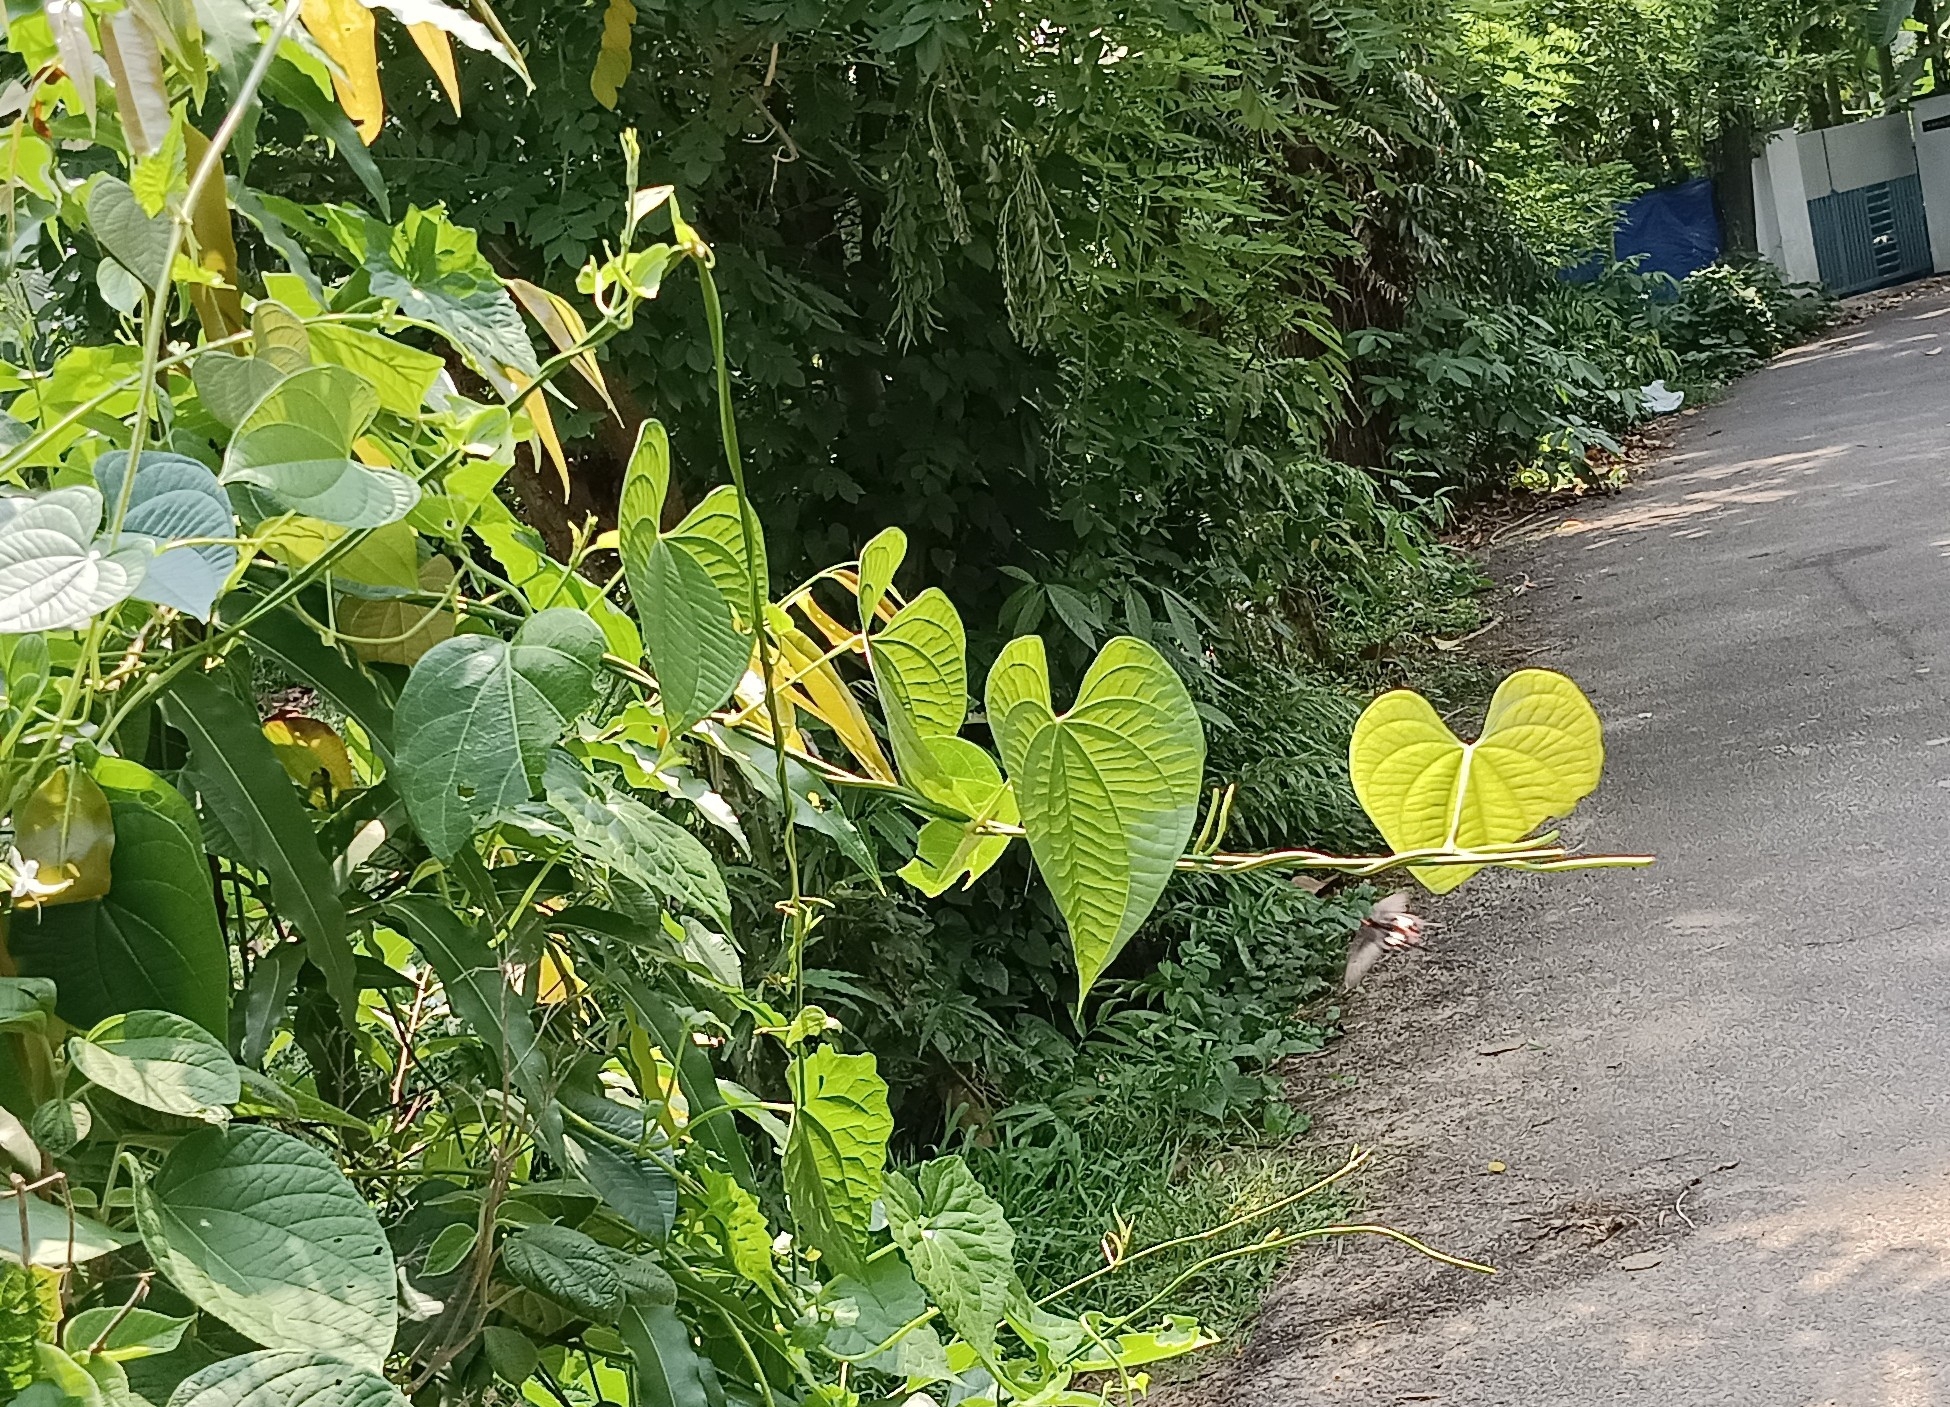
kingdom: Plantae
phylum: Tracheophyta
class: Liliopsida
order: Dioscoreales
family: Dioscoreaceae
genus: Dioscorea
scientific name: Dioscorea bulbifera
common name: Air yam
